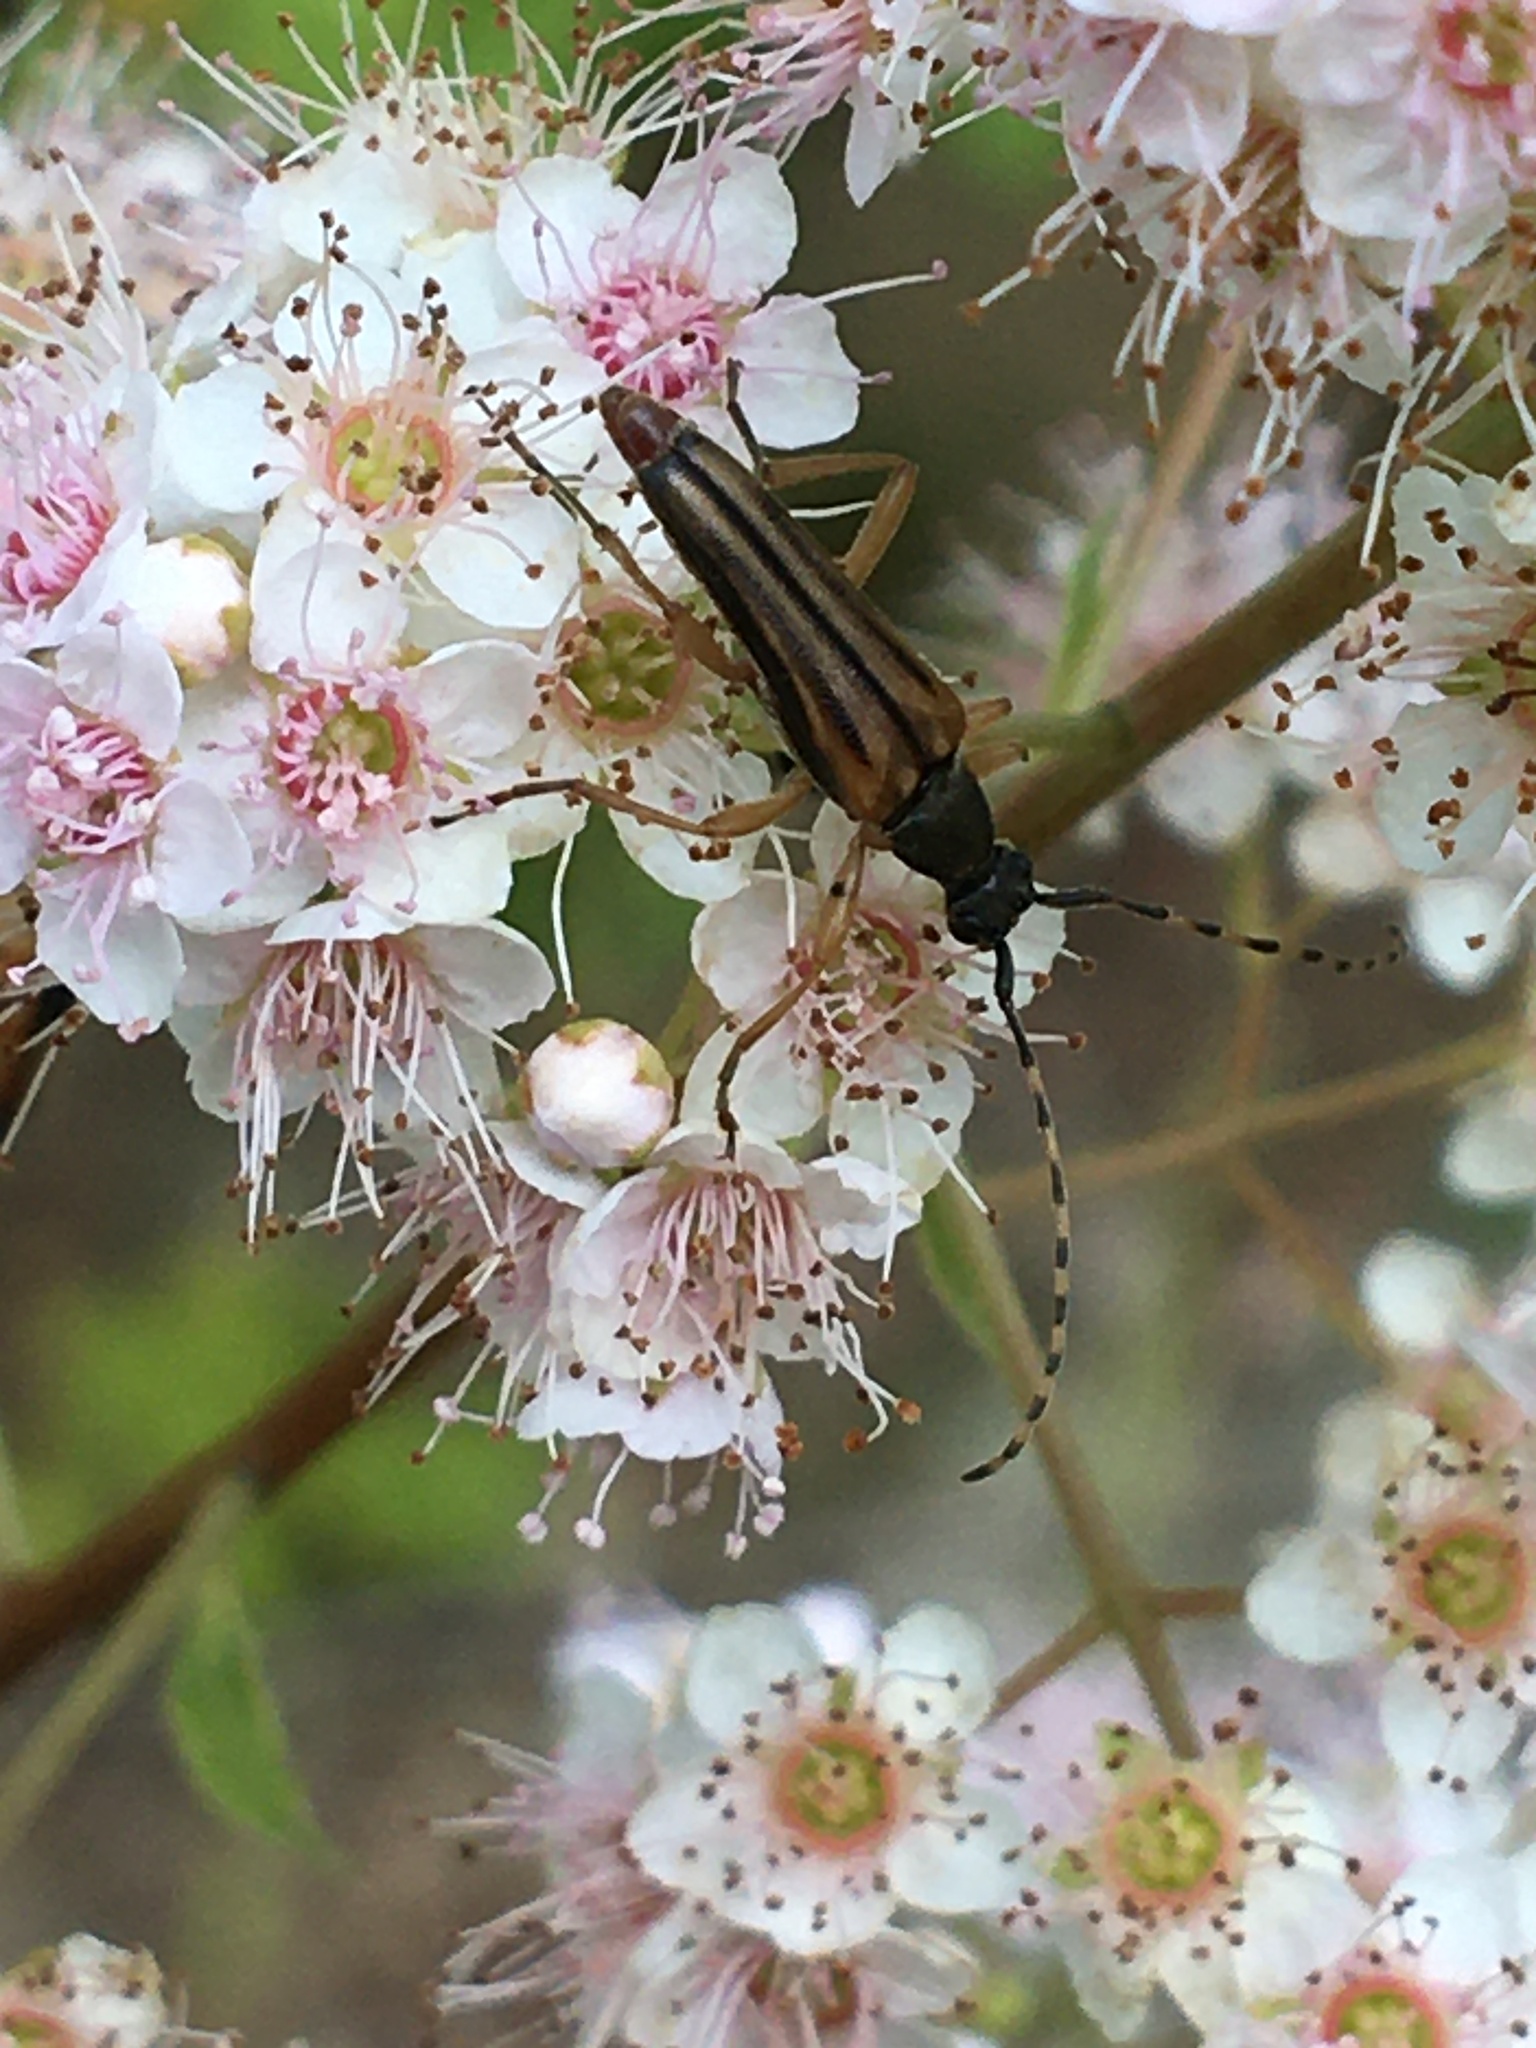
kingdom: Animalia
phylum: Arthropoda
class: Insecta
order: Coleoptera
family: Cerambycidae
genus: Analeptura
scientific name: Analeptura lineola
